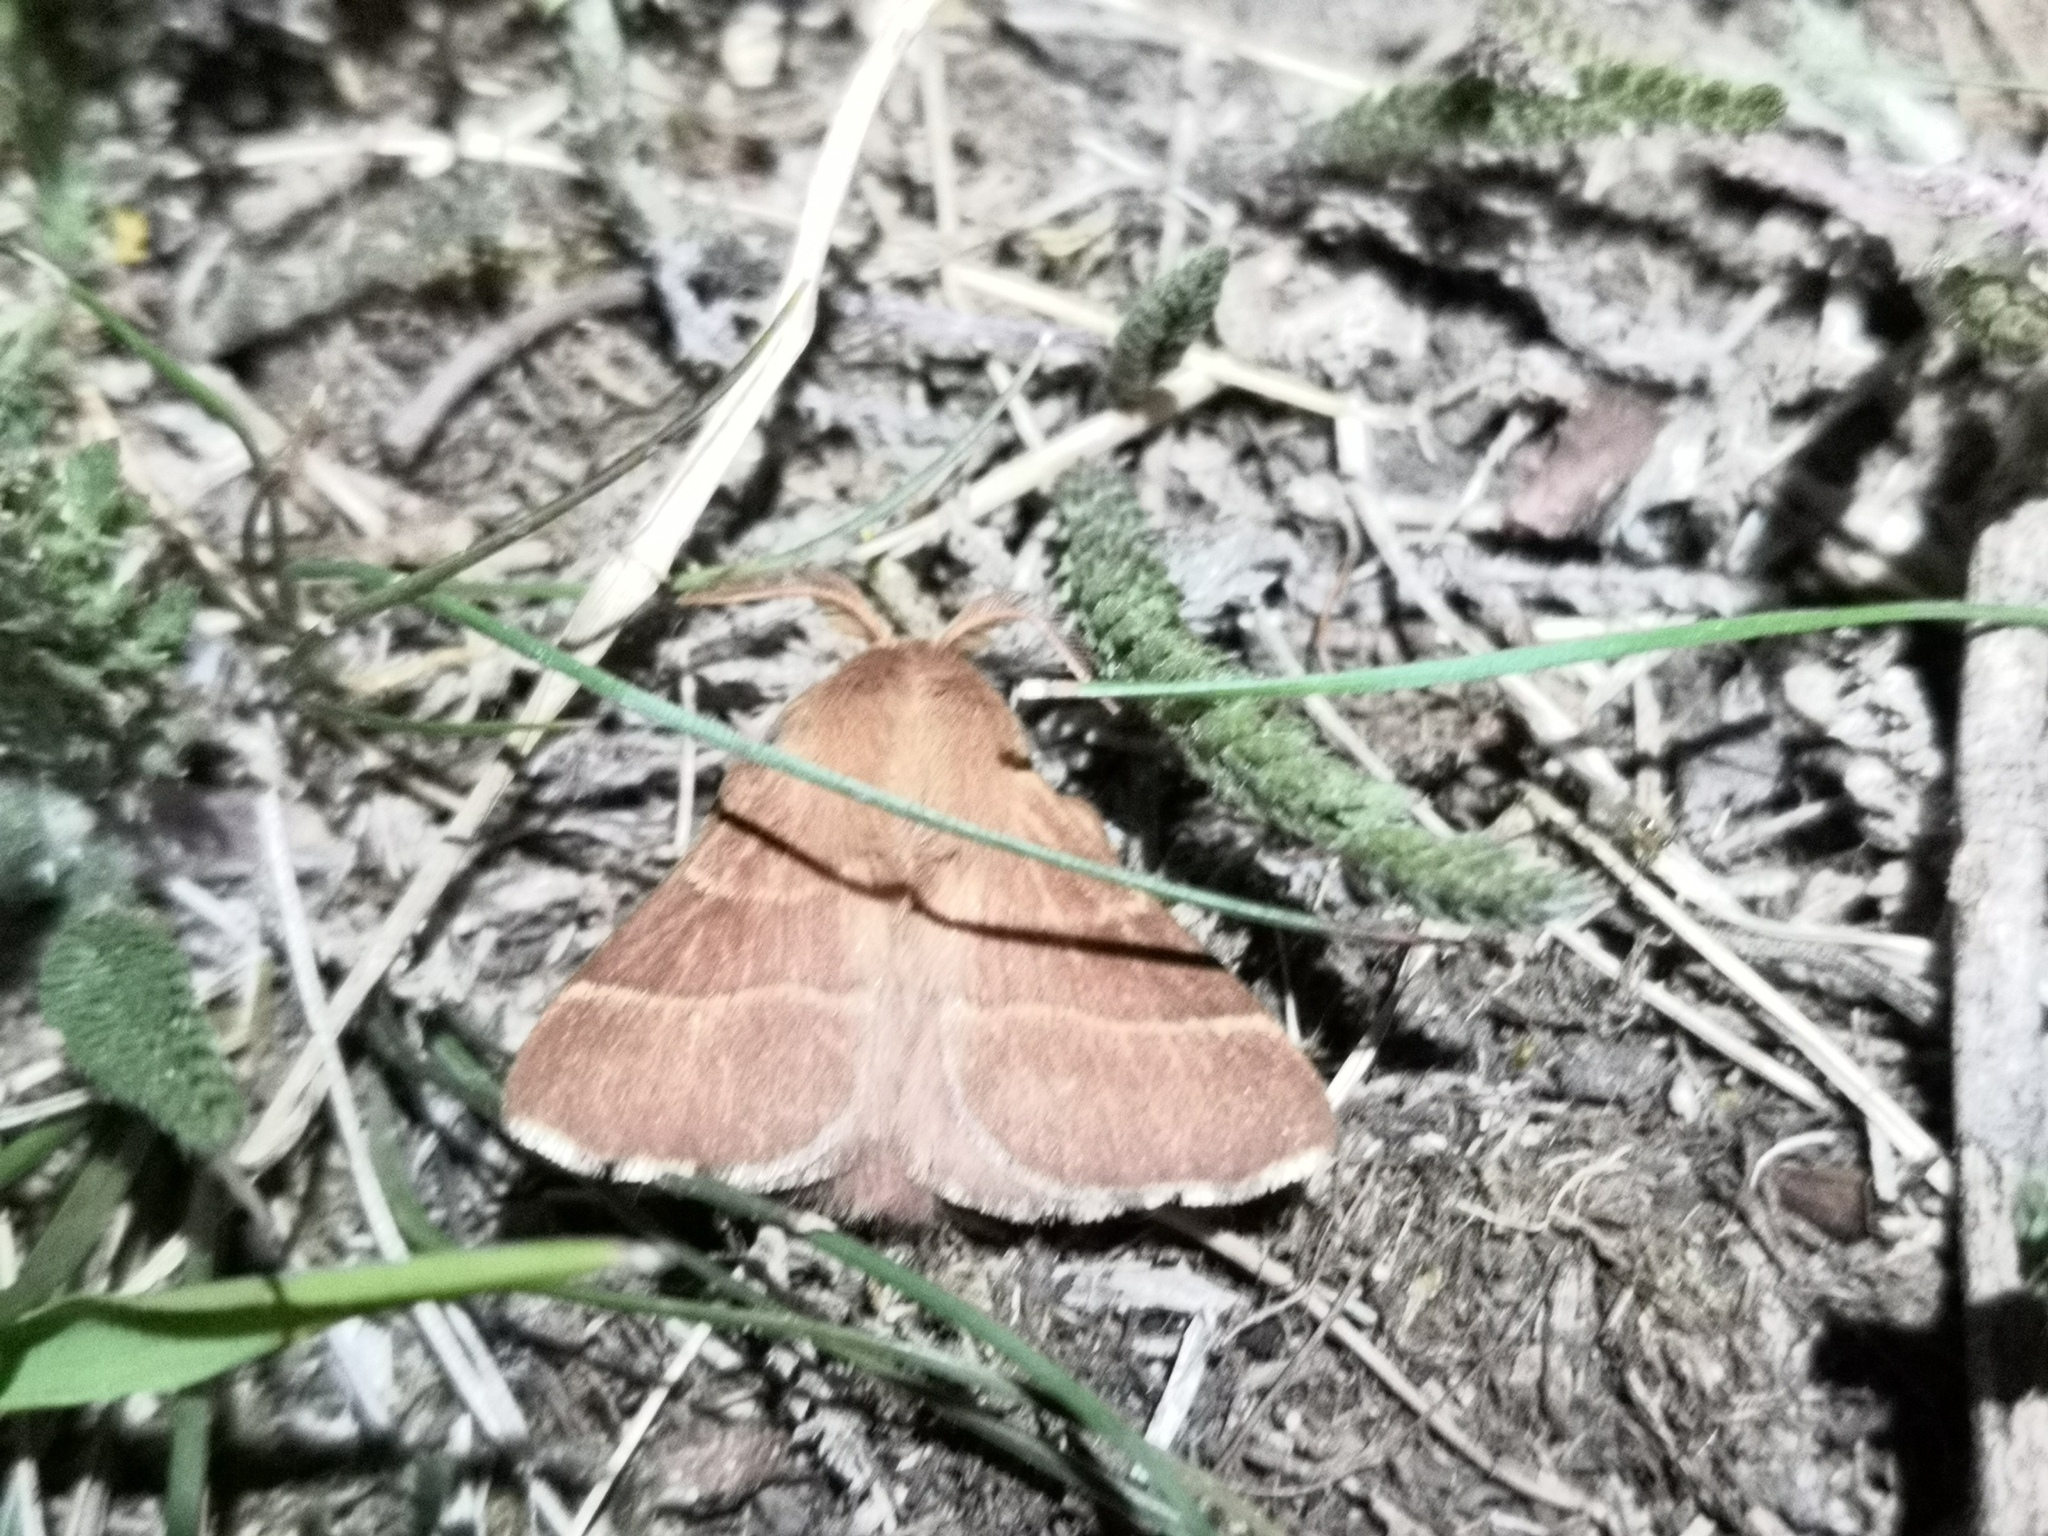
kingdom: Animalia
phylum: Arthropoda
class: Insecta
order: Lepidoptera
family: Lasiocampidae
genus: Malacosoma
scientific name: Malacosoma neustria
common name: The lackey
